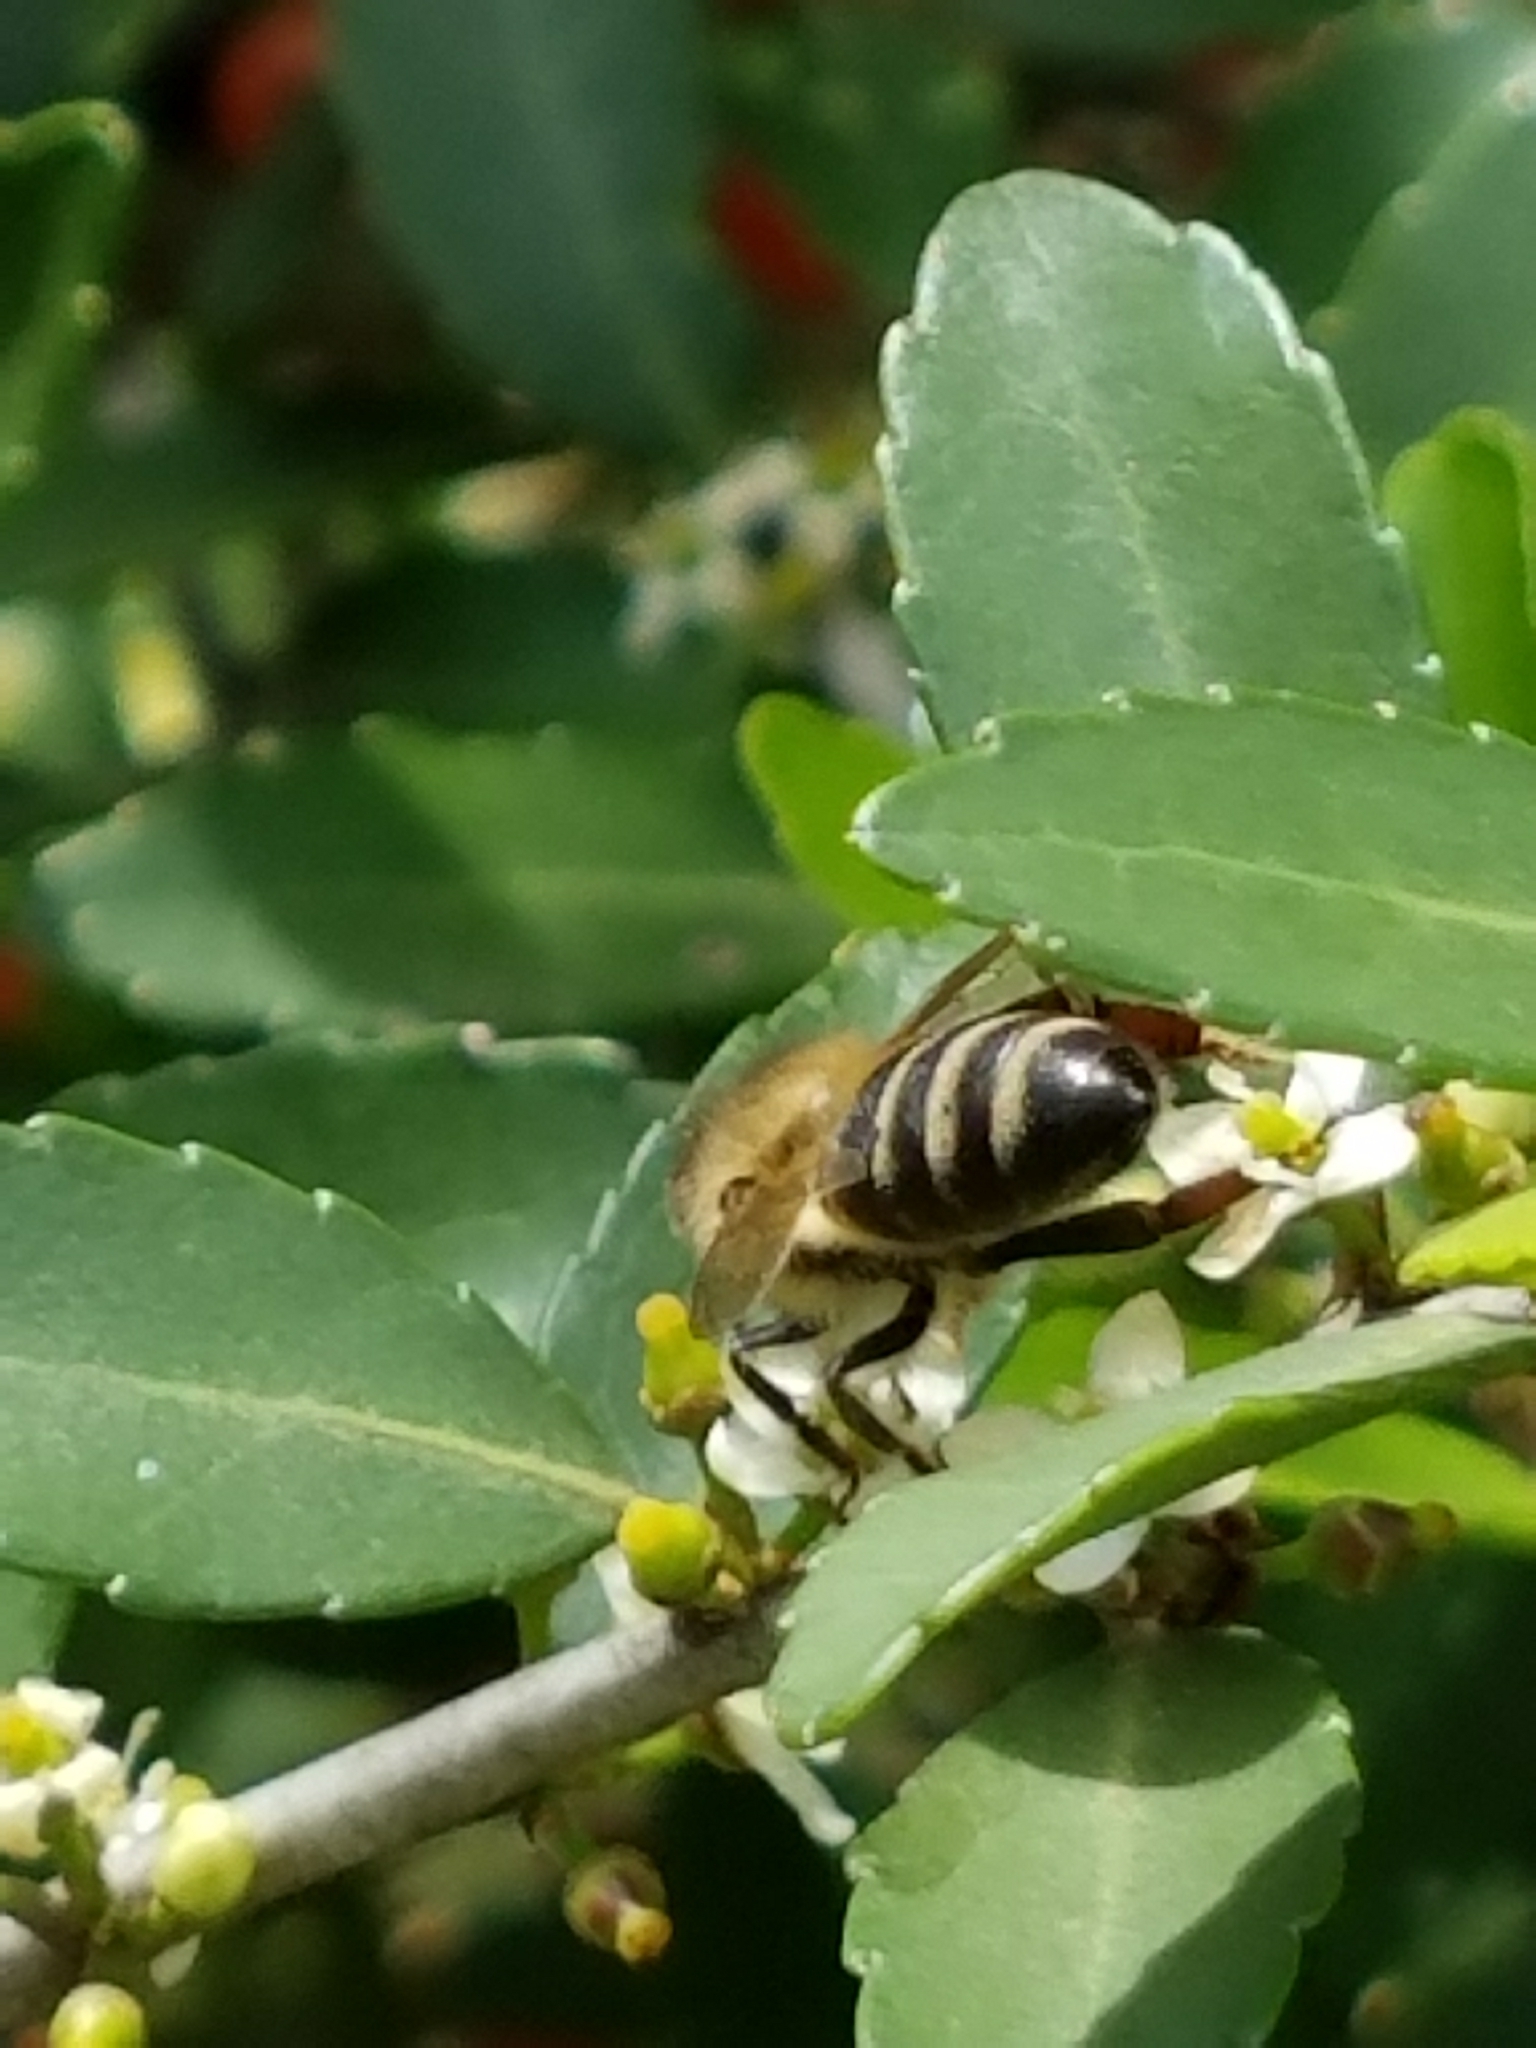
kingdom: Animalia
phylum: Arthropoda
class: Insecta
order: Hymenoptera
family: Apidae
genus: Apis
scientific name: Apis mellifera
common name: Honey bee
